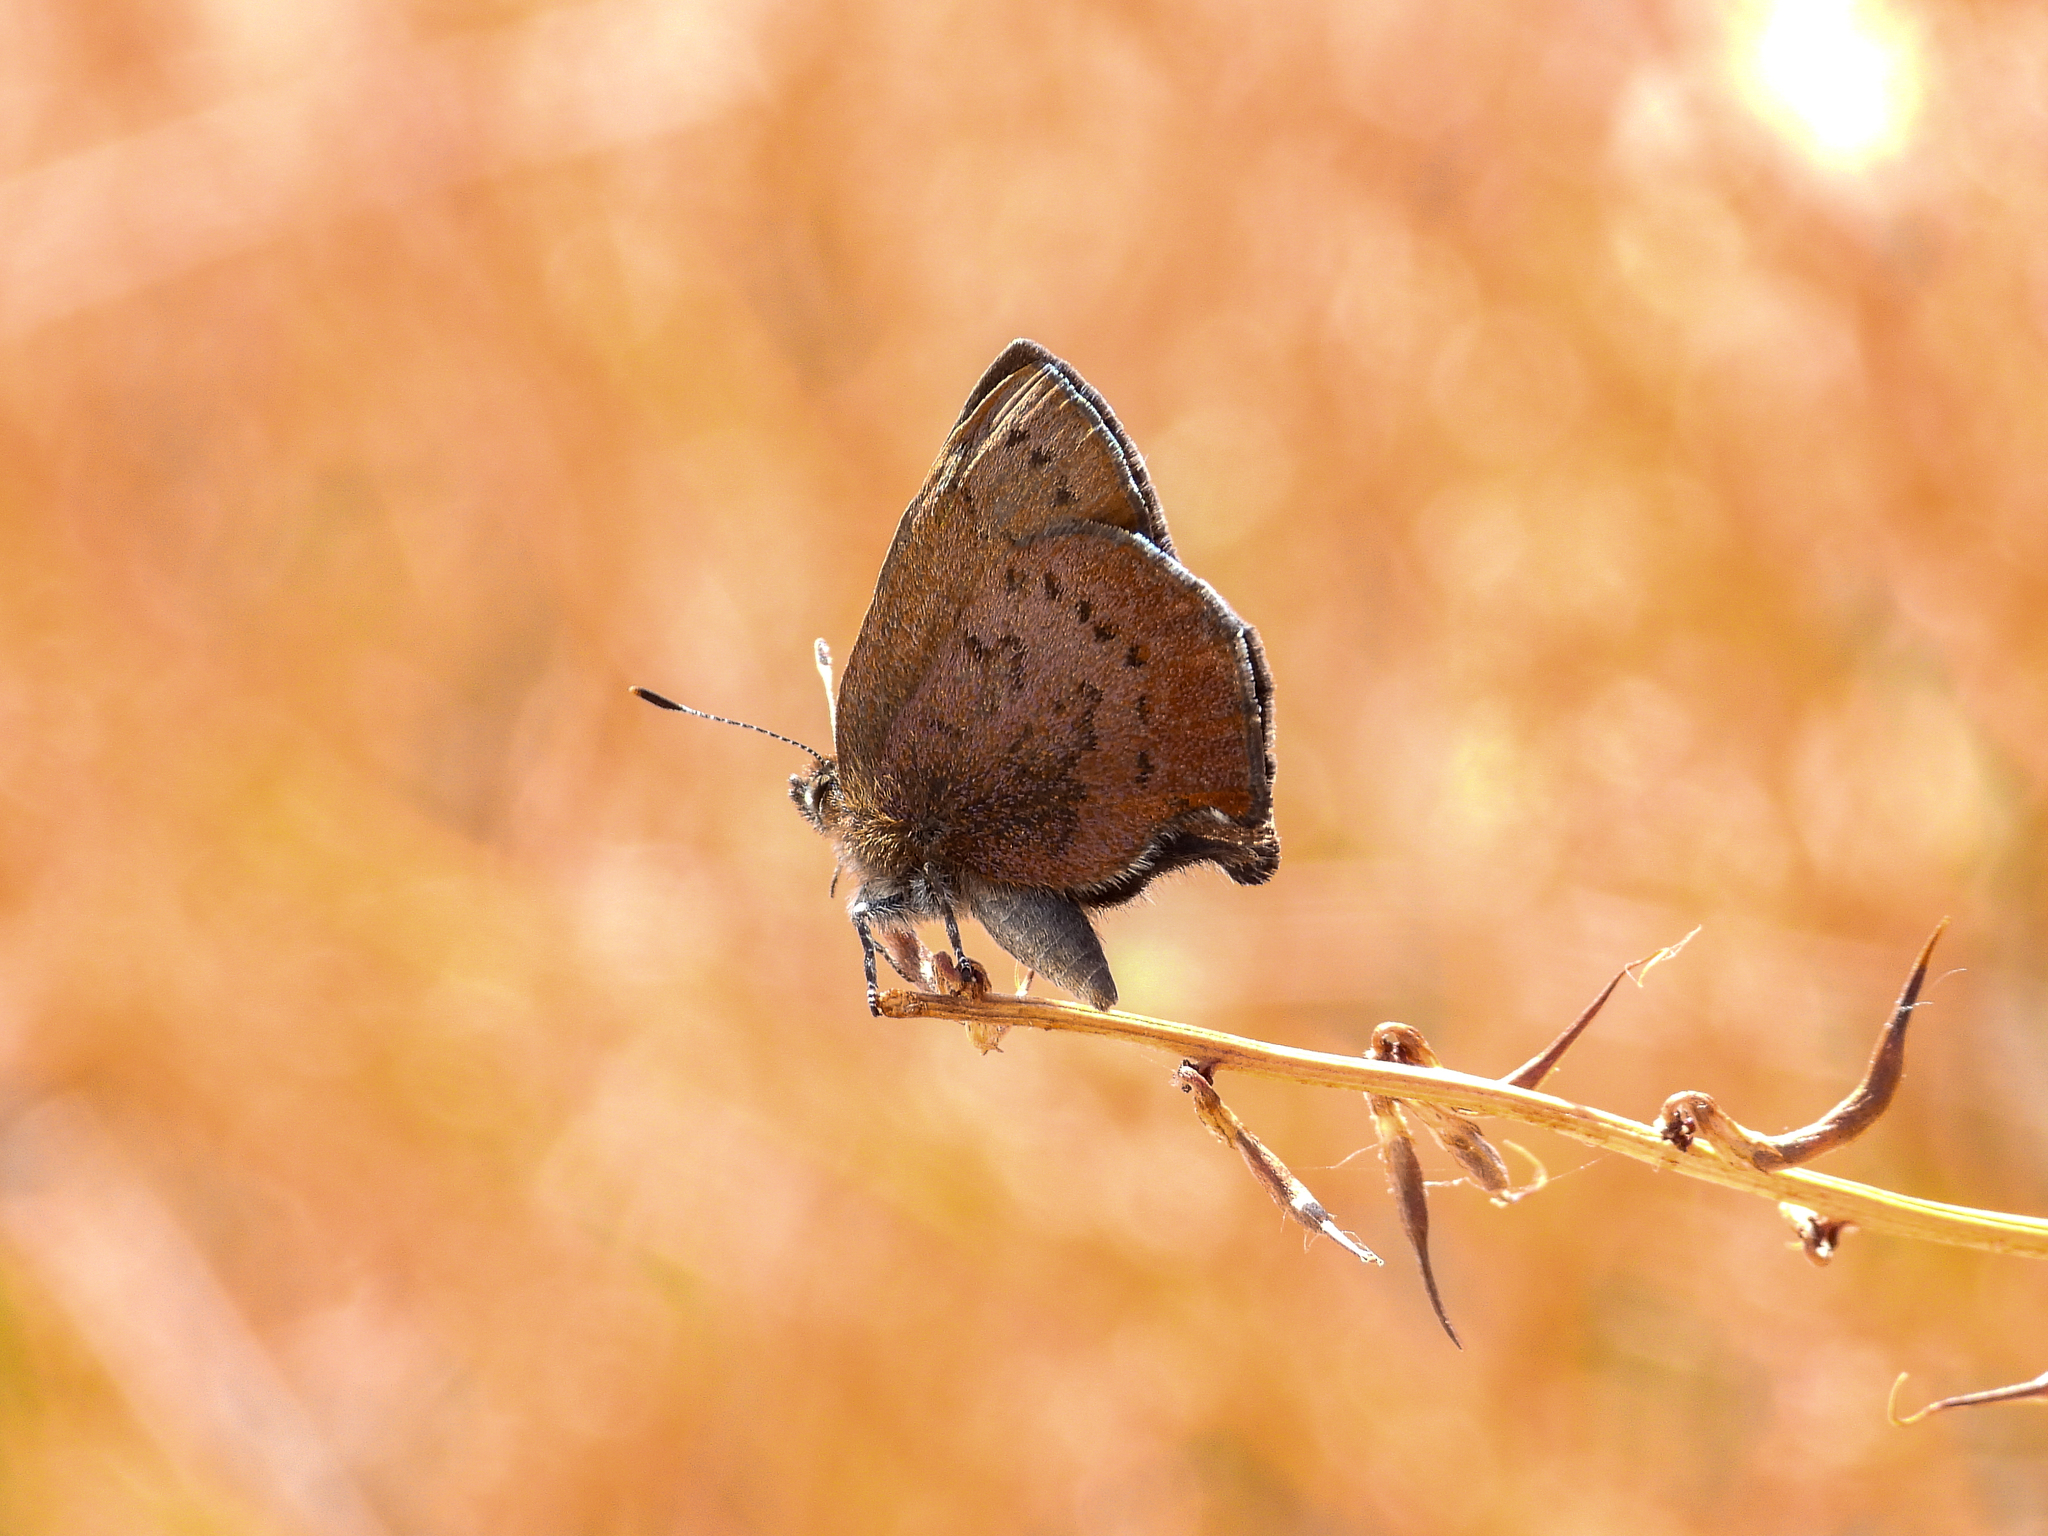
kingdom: Animalia
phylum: Arthropoda
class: Insecta
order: Lepidoptera
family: Lycaenidae
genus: Incisalia
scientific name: Incisalia irioides
